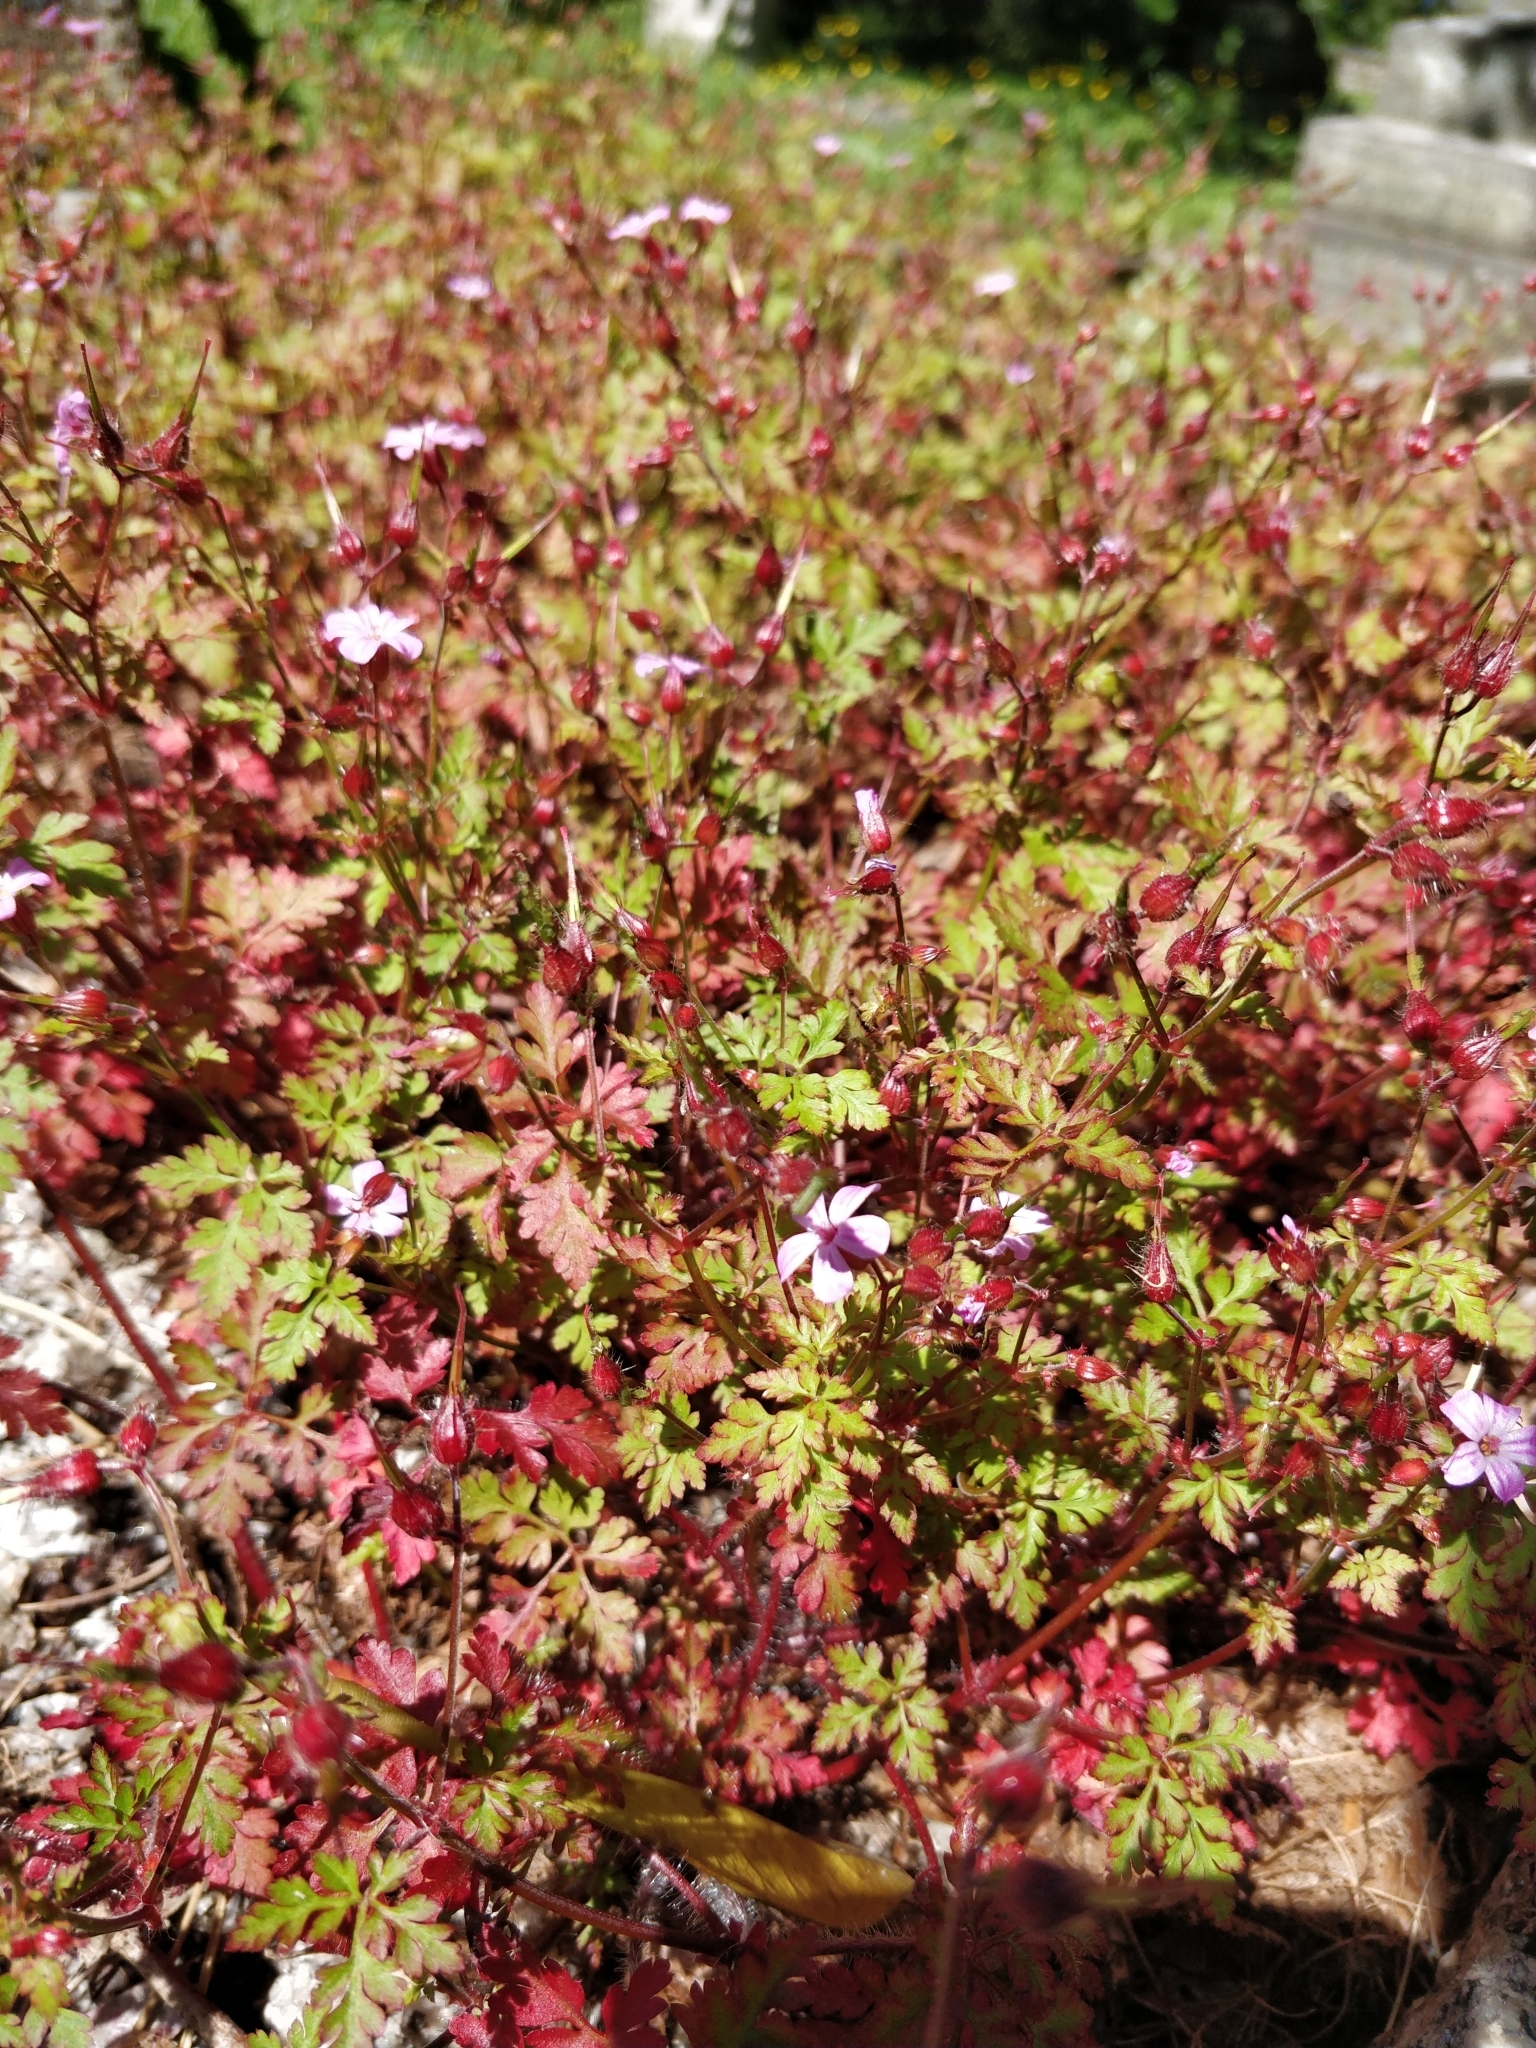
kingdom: Plantae
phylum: Tracheophyta
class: Magnoliopsida
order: Geraniales
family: Geraniaceae
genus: Geranium
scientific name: Geranium robertianum
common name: Herb-robert
